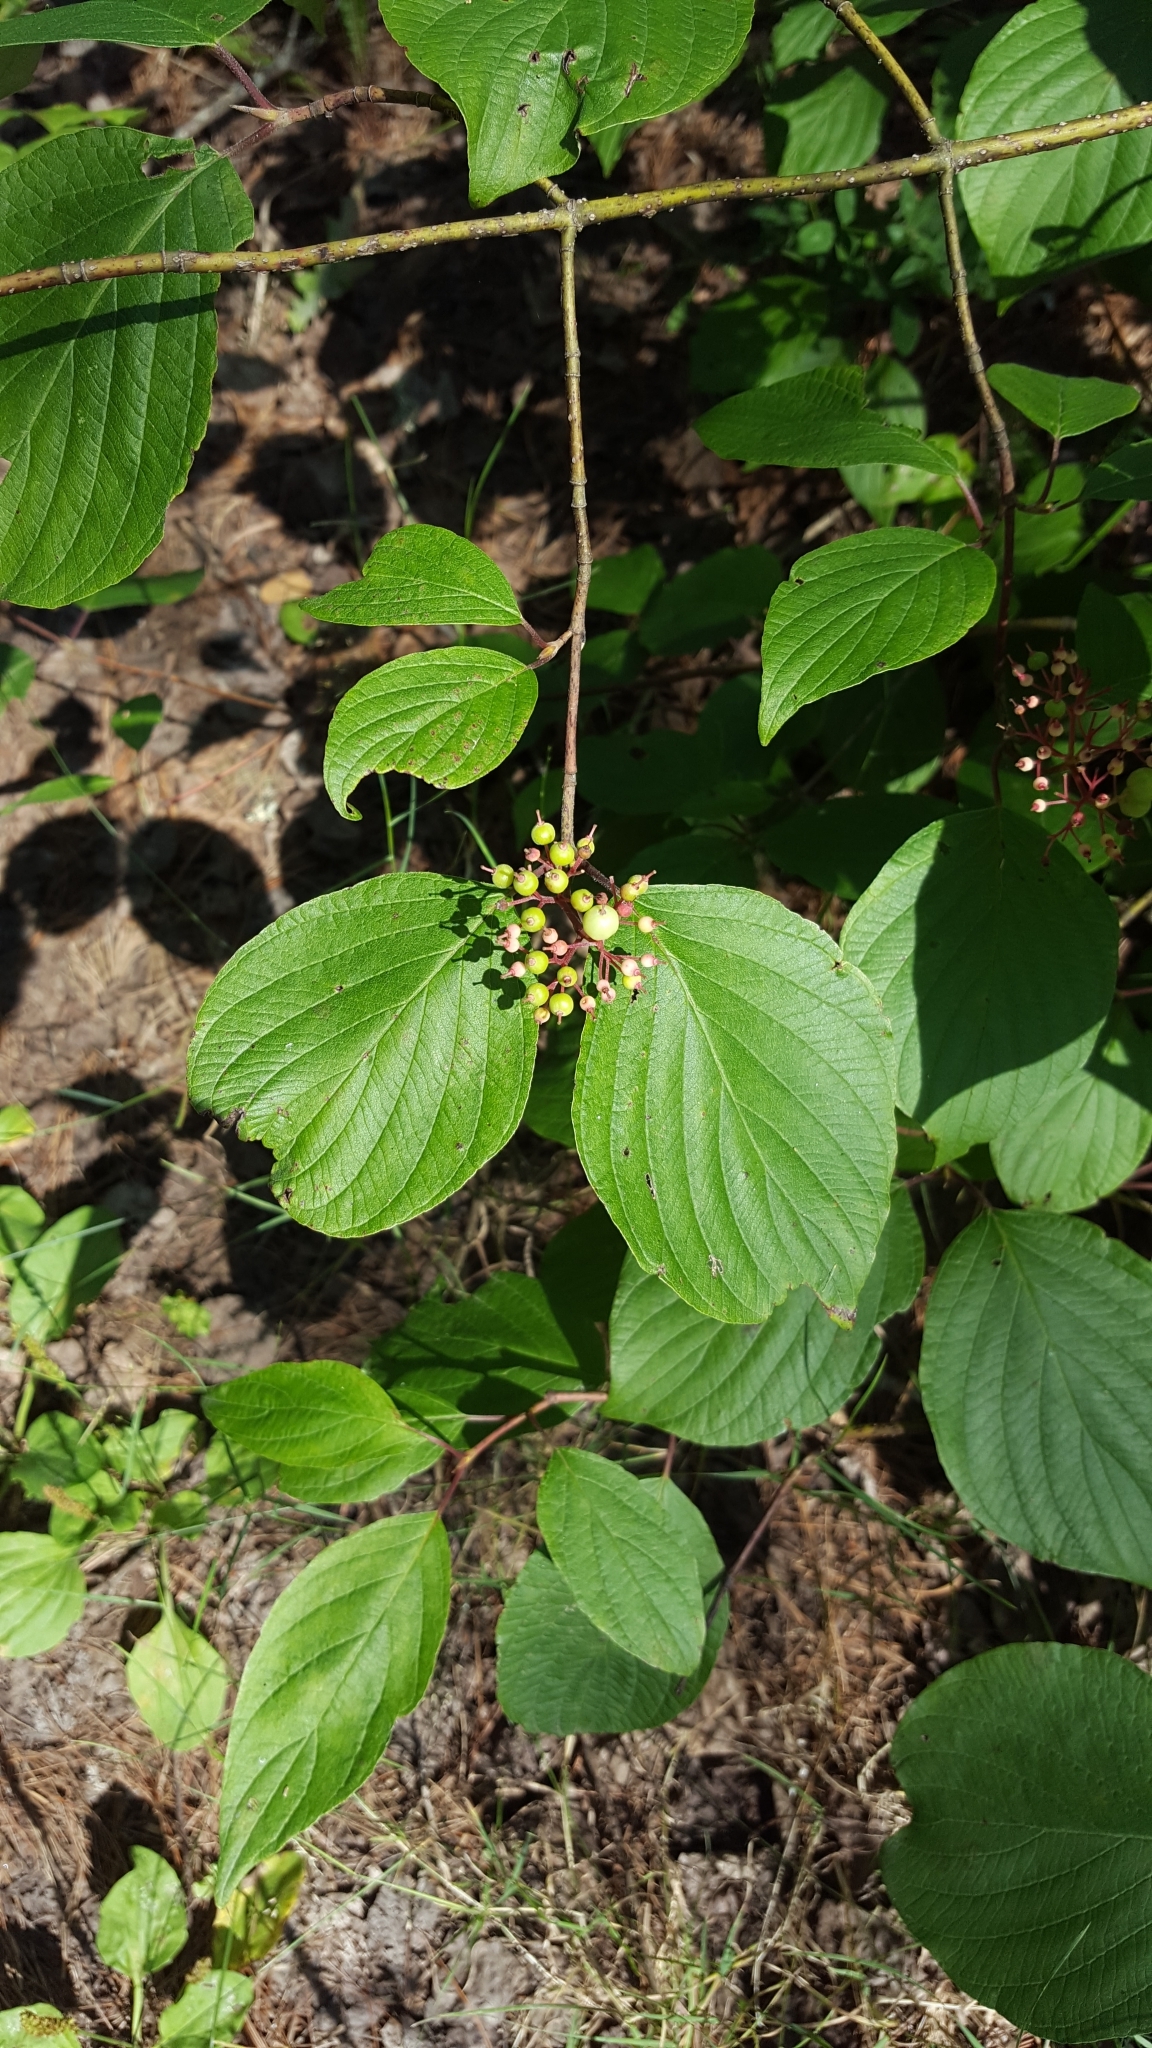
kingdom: Plantae
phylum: Tracheophyta
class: Magnoliopsida
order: Cornales
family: Cornaceae
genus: Cornus
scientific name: Cornus rugosa
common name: Round-leaf dogwood
